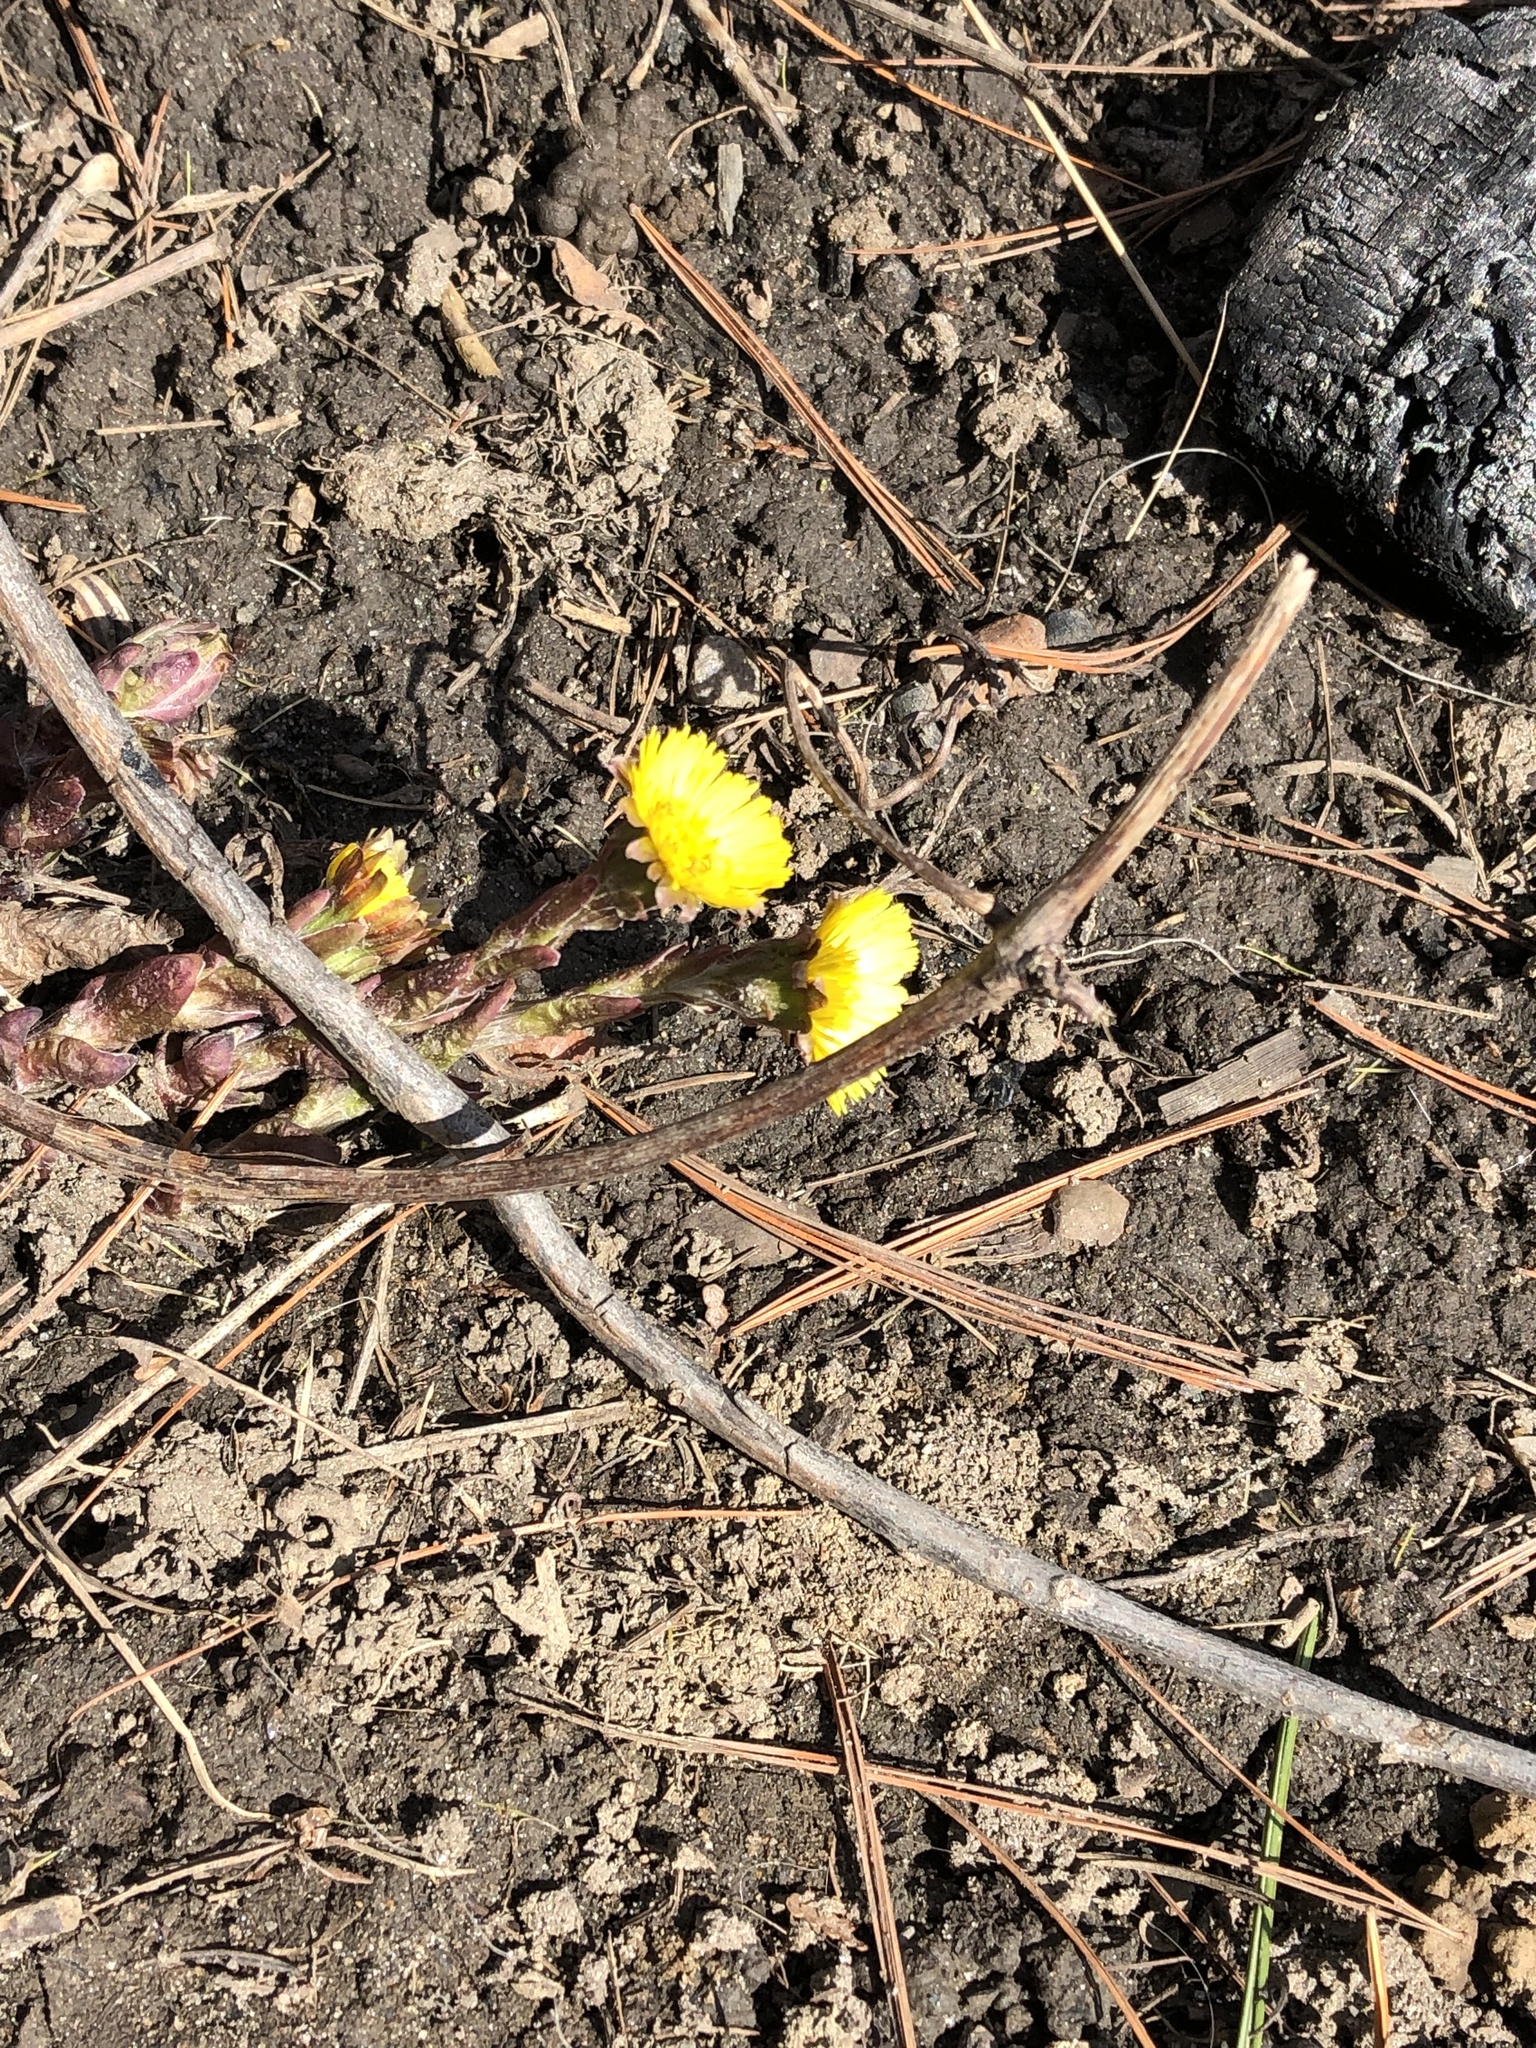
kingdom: Plantae
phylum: Tracheophyta
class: Magnoliopsida
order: Asterales
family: Asteraceae
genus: Tussilago
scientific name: Tussilago farfara
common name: Coltsfoot
